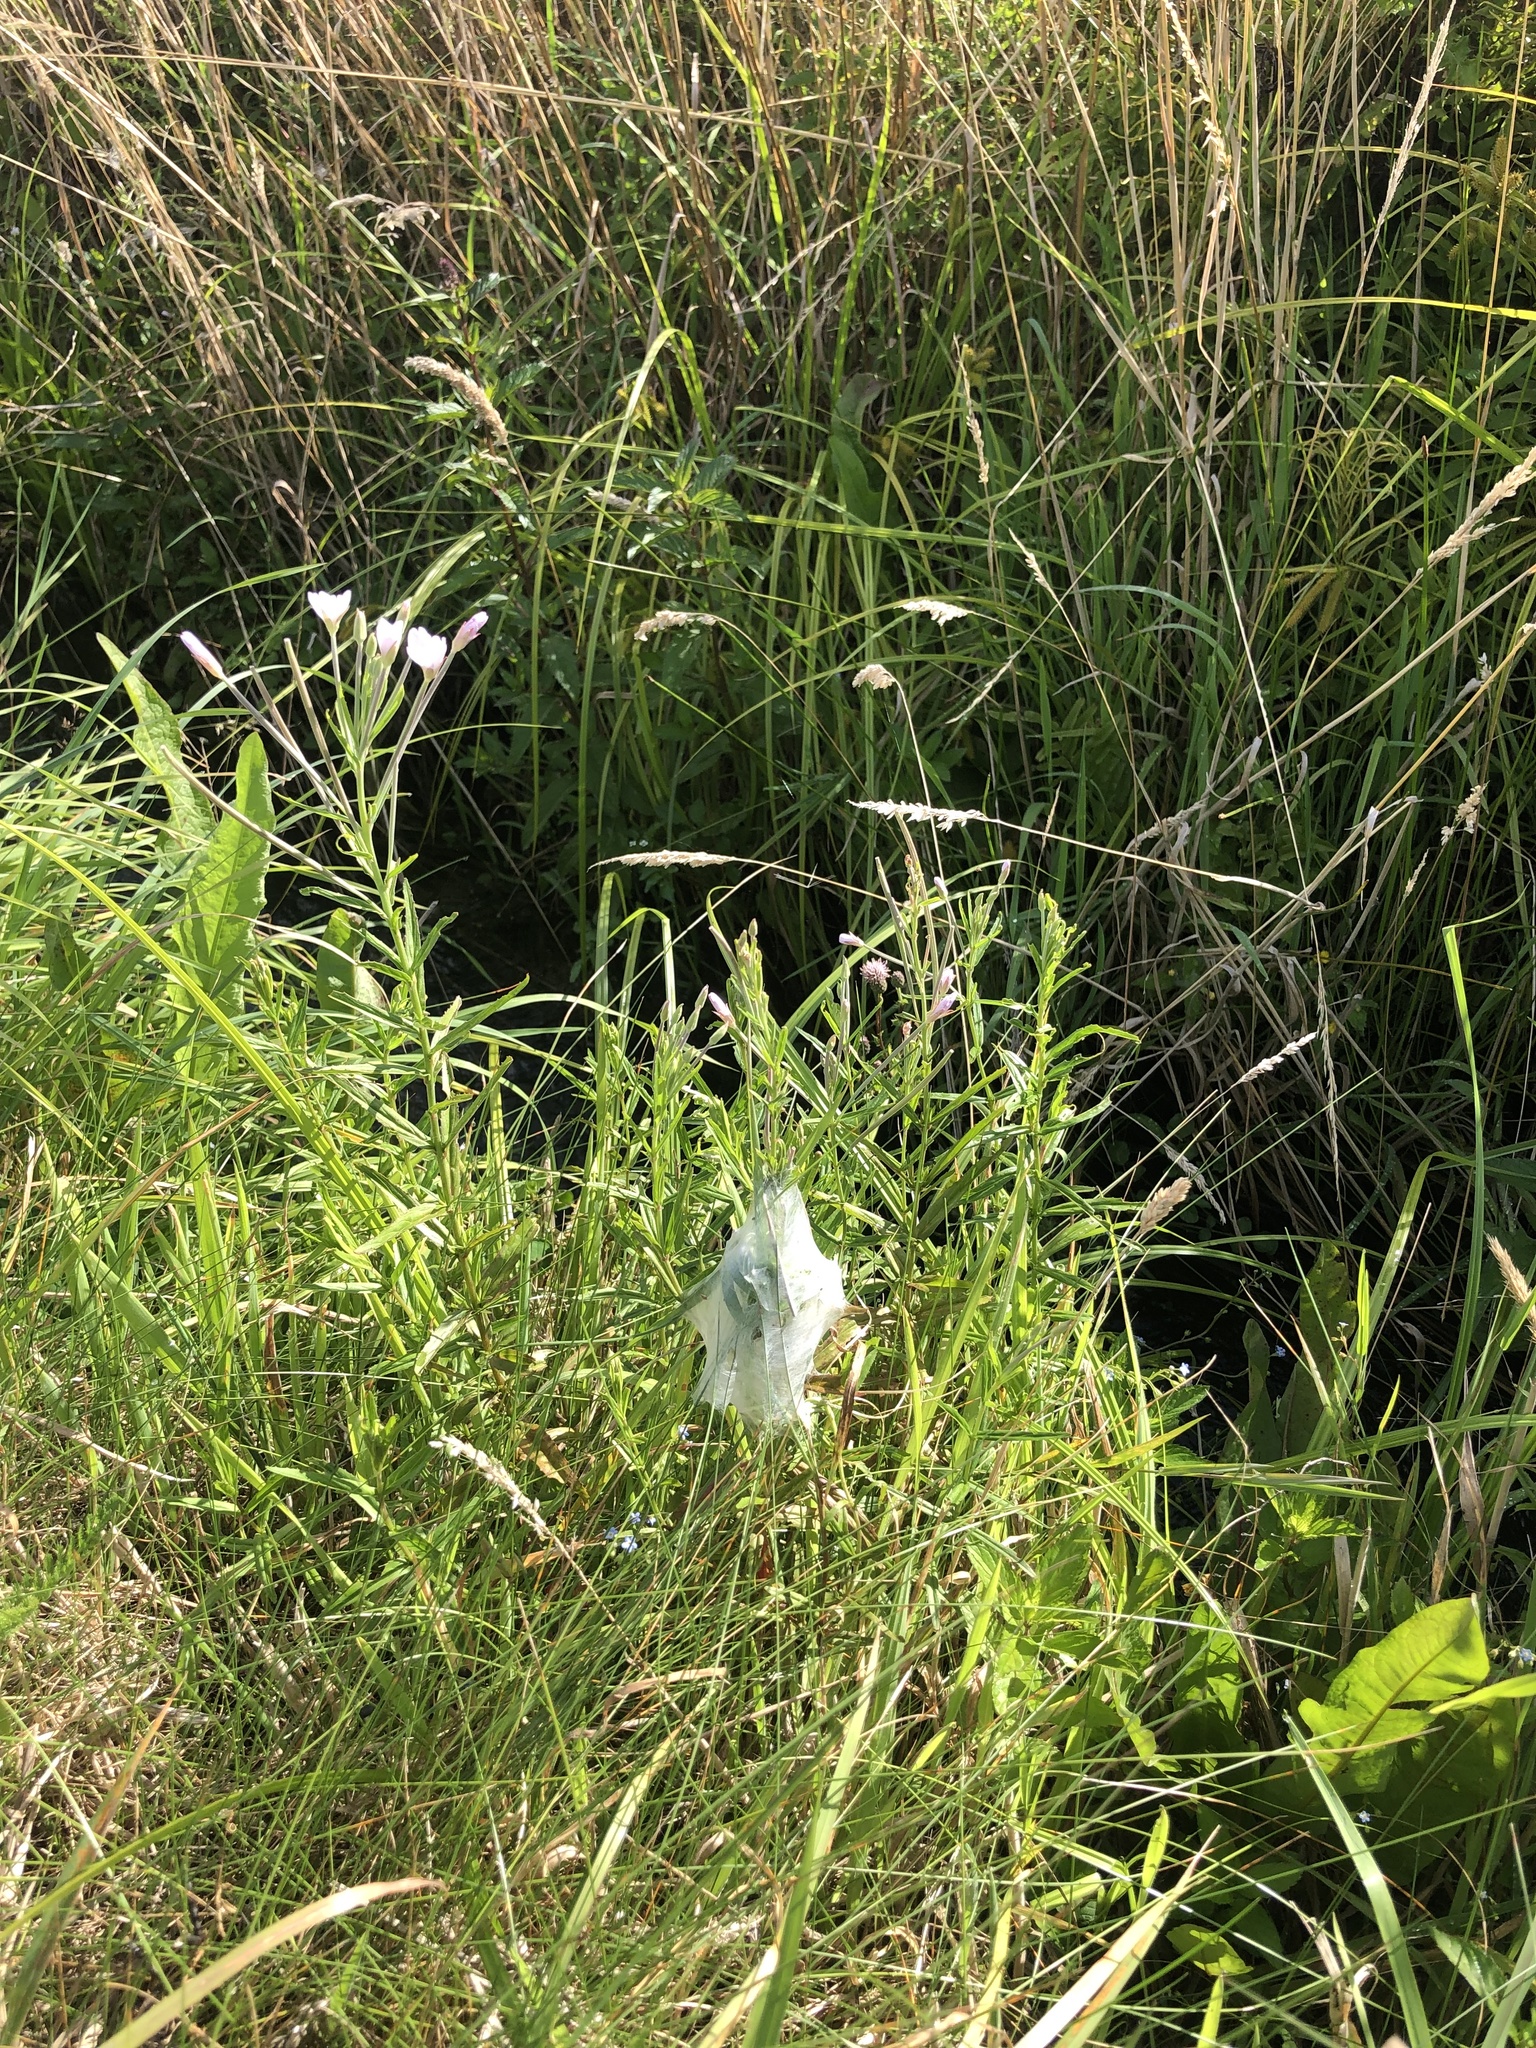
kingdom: Animalia
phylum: Arthropoda
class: Arachnida
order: Araneae
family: Pisauridae
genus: Dolomedes
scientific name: Dolomedes minor
